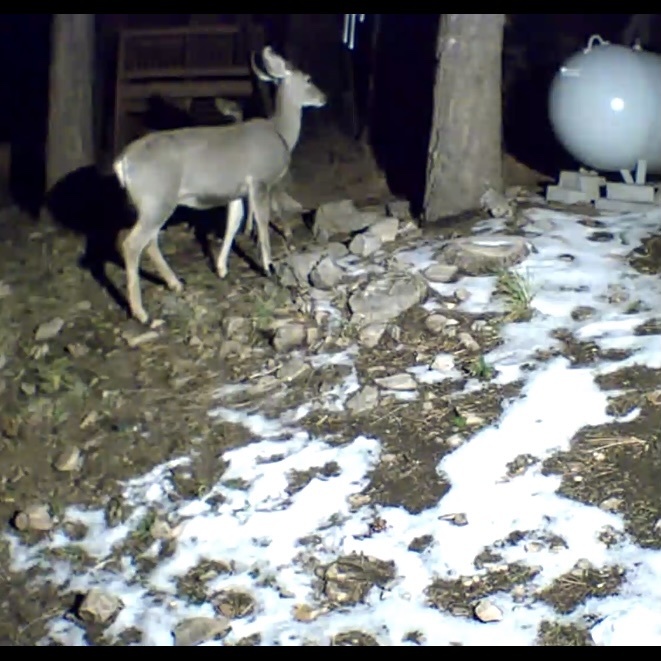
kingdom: Animalia
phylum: Chordata
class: Mammalia
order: Artiodactyla
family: Cervidae
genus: Odocoileus
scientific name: Odocoileus hemionus
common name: Mule deer
